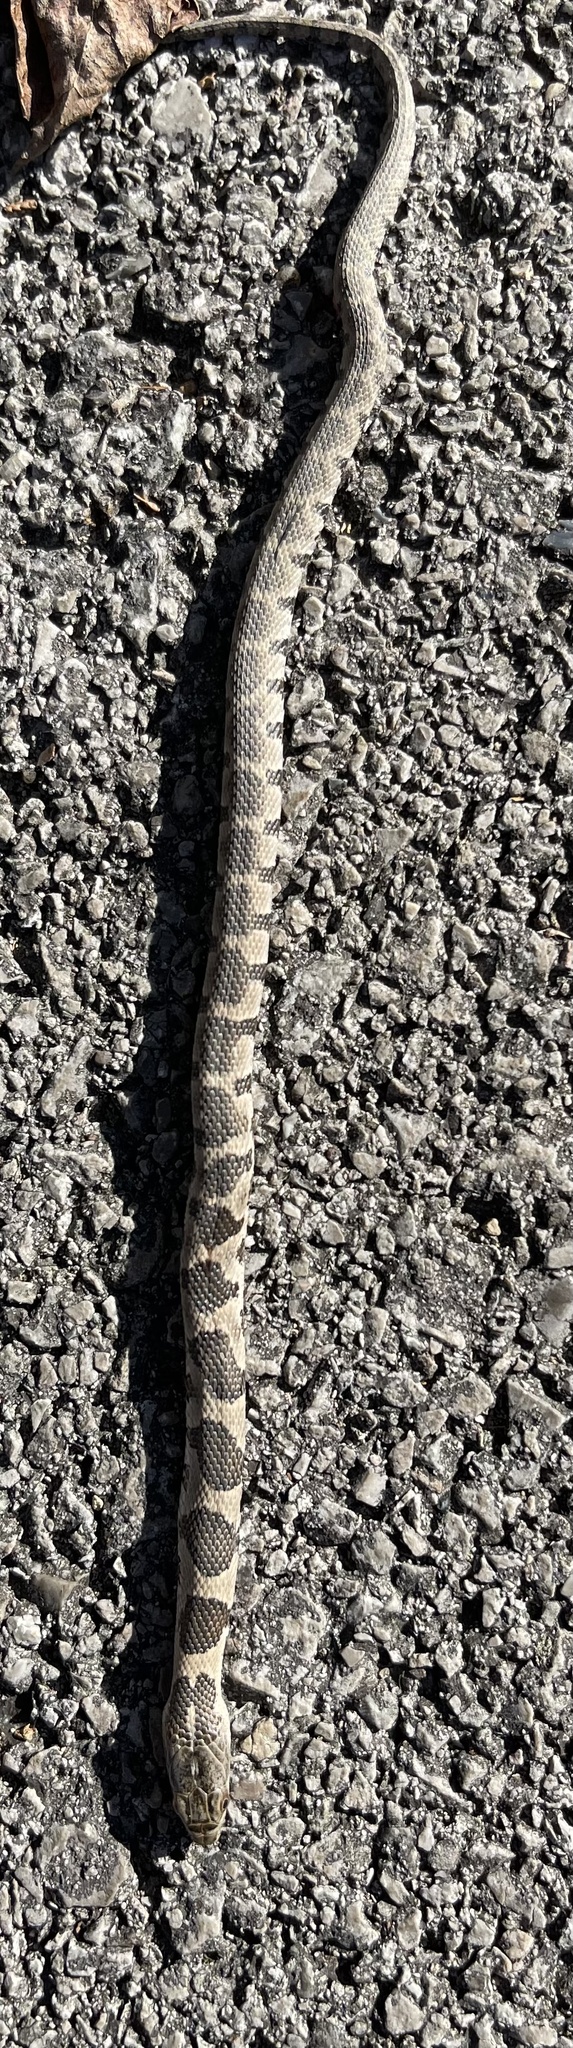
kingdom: Animalia
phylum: Chordata
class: Squamata
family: Colubridae
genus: Nerodia
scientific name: Nerodia sipedon
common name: Northern water snake
